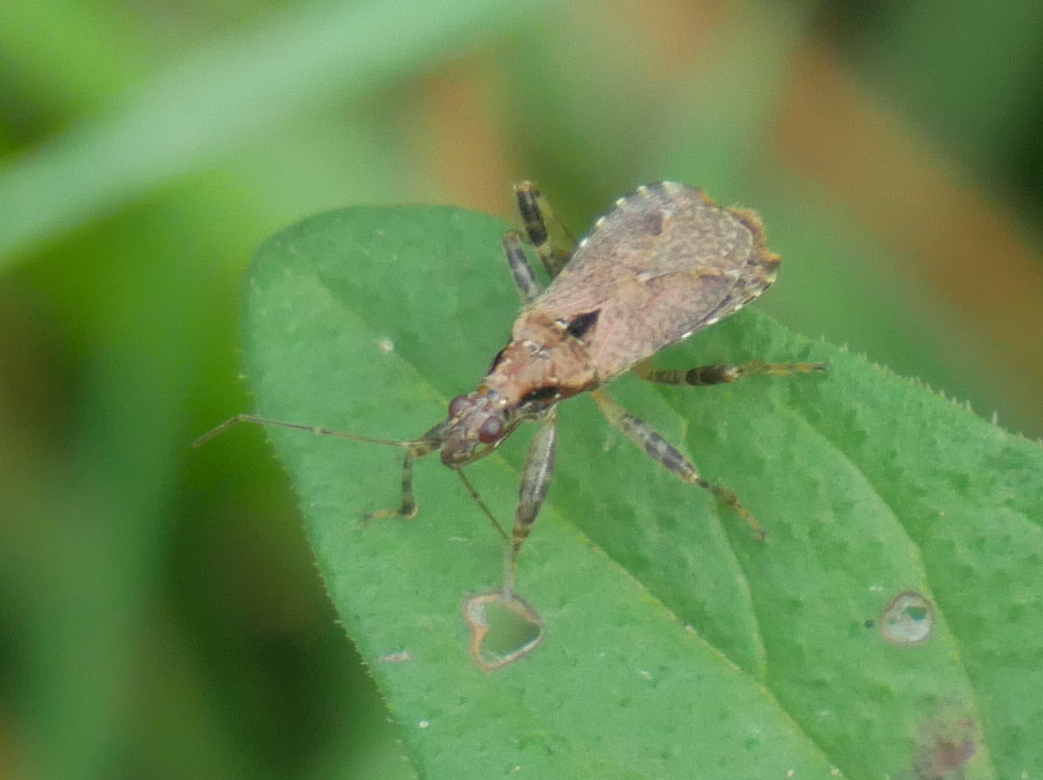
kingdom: Animalia
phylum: Arthropoda
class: Insecta
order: Hemiptera
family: Nabidae
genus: Himacerus
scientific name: Himacerus mirmicoides
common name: Ant damsel bug
